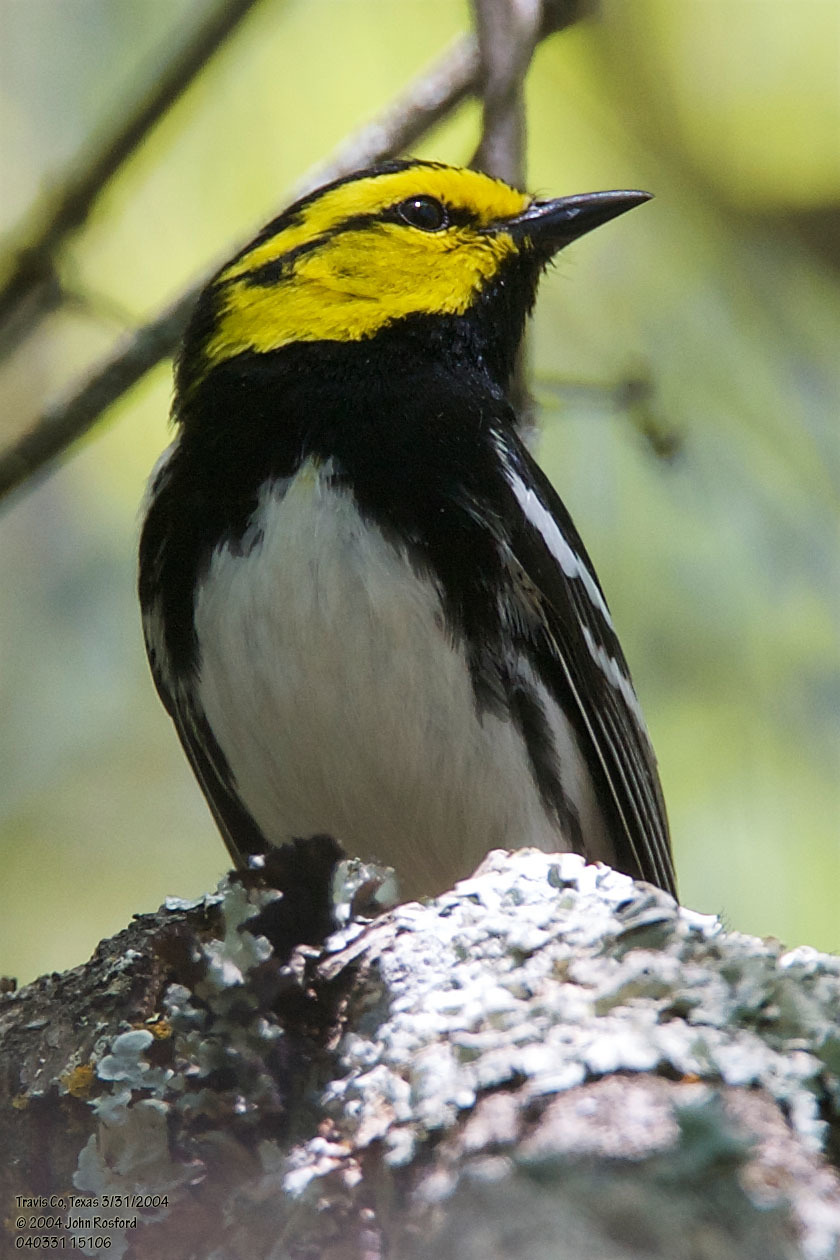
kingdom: Animalia
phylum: Chordata
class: Aves
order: Passeriformes
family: Parulidae
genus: Setophaga
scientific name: Setophaga chrysoparia
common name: Golden-cheeked warbler
